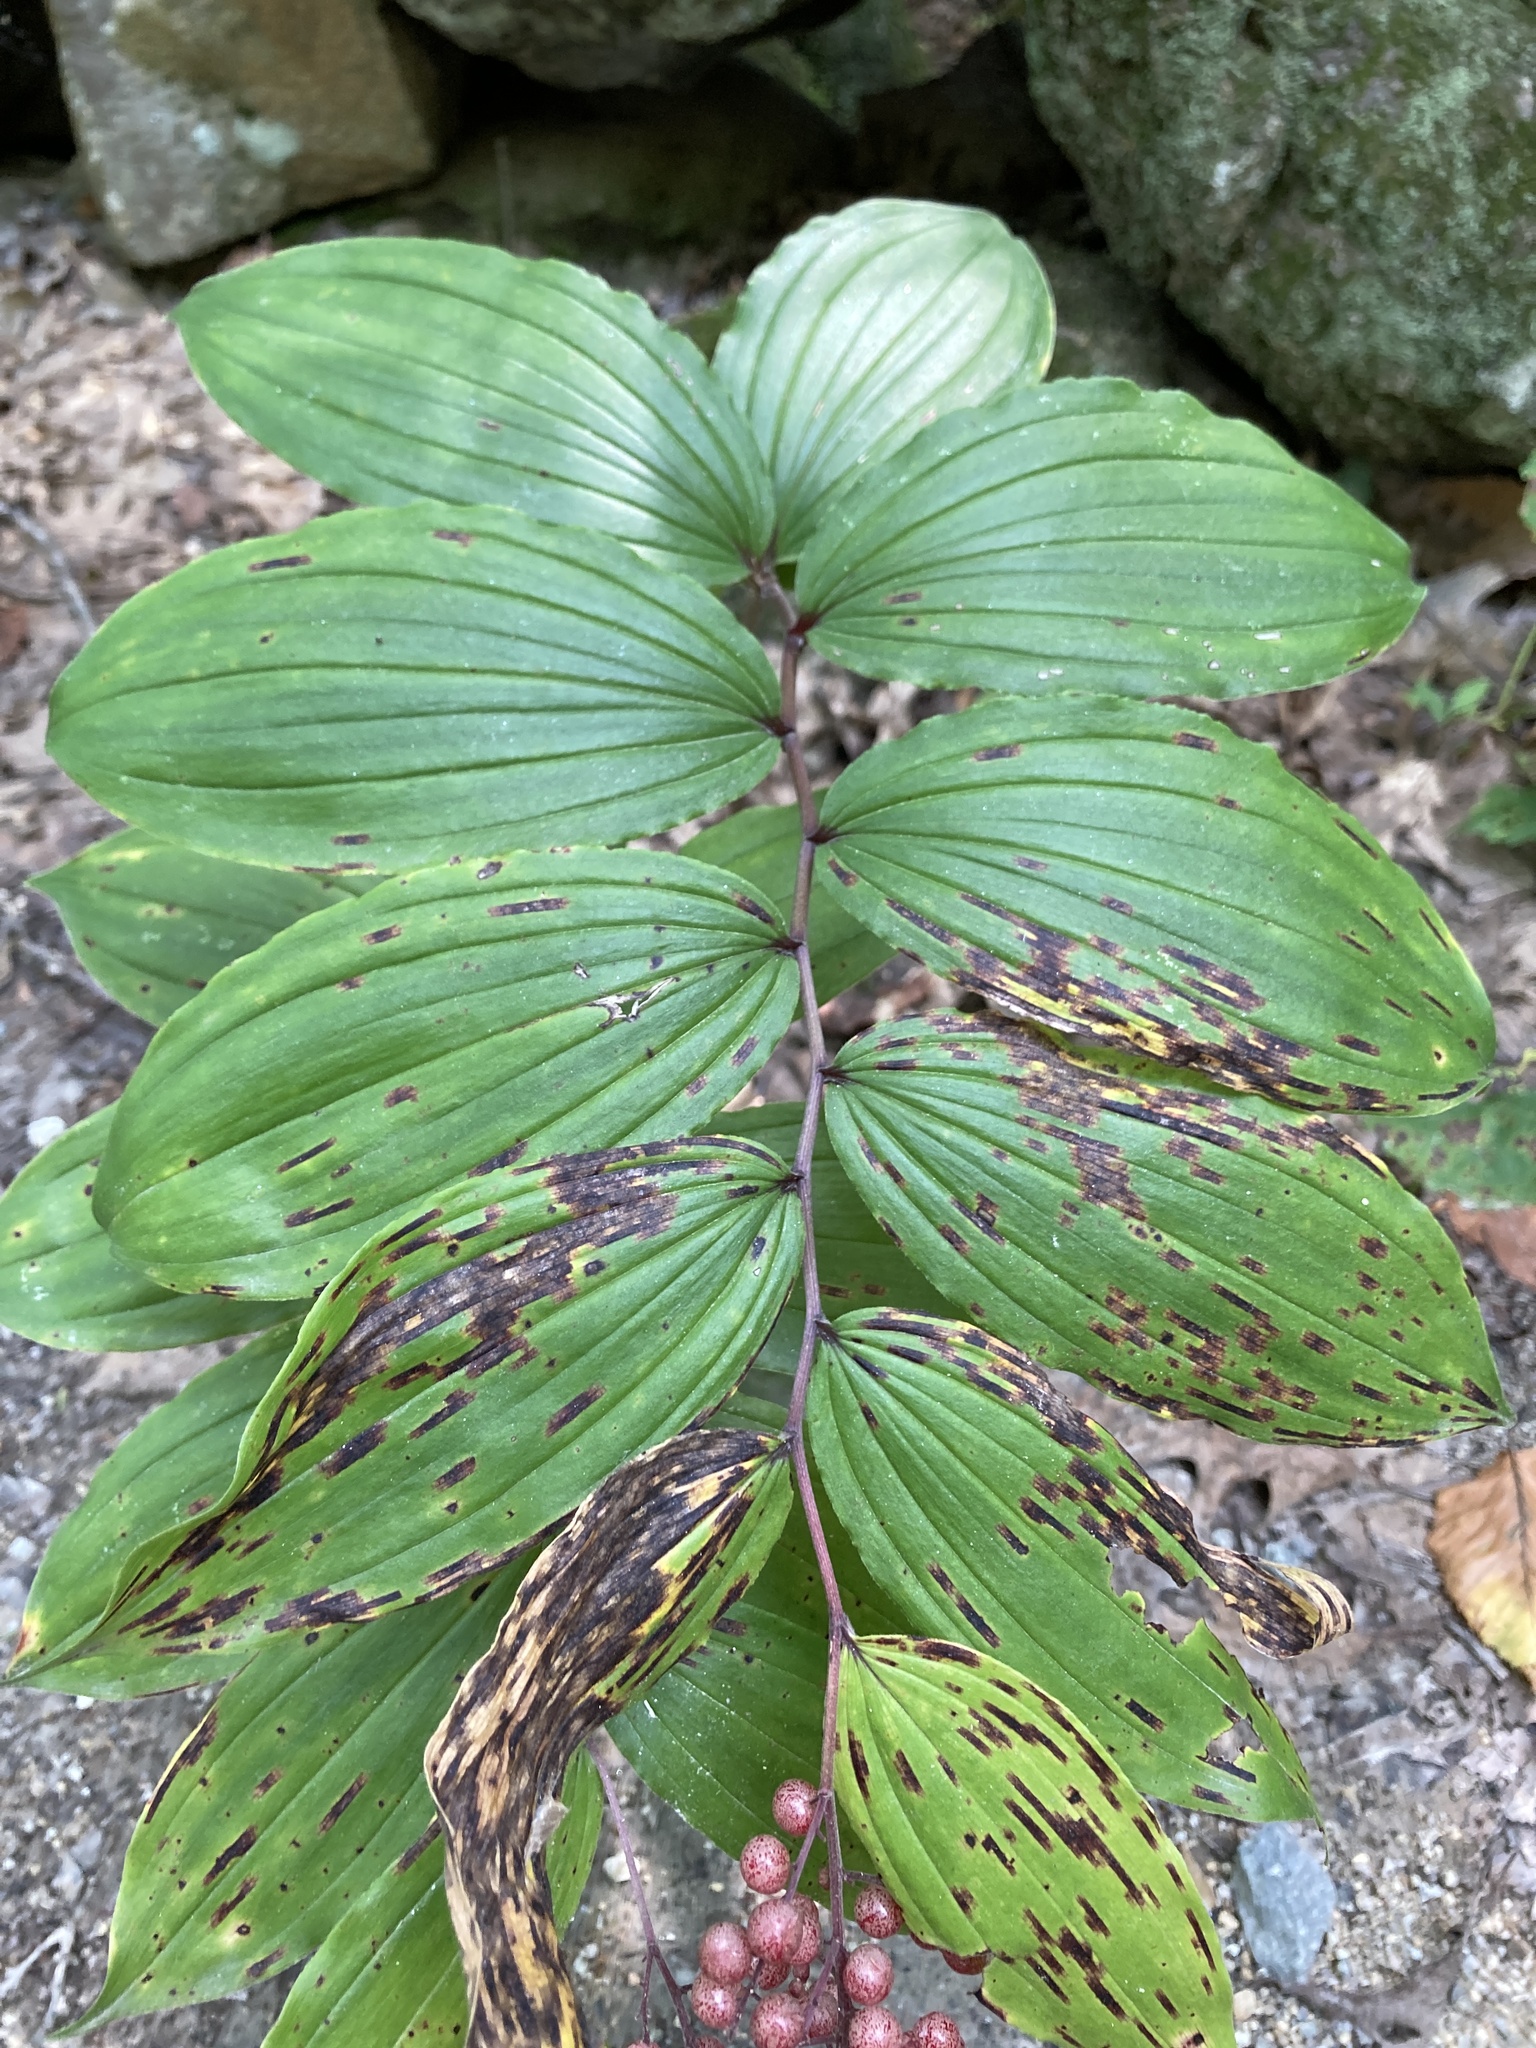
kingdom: Plantae
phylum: Tracheophyta
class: Liliopsida
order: Asparagales
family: Asparagaceae
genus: Maianthemum
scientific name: Maianthemum racemosum
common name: False spikenard
